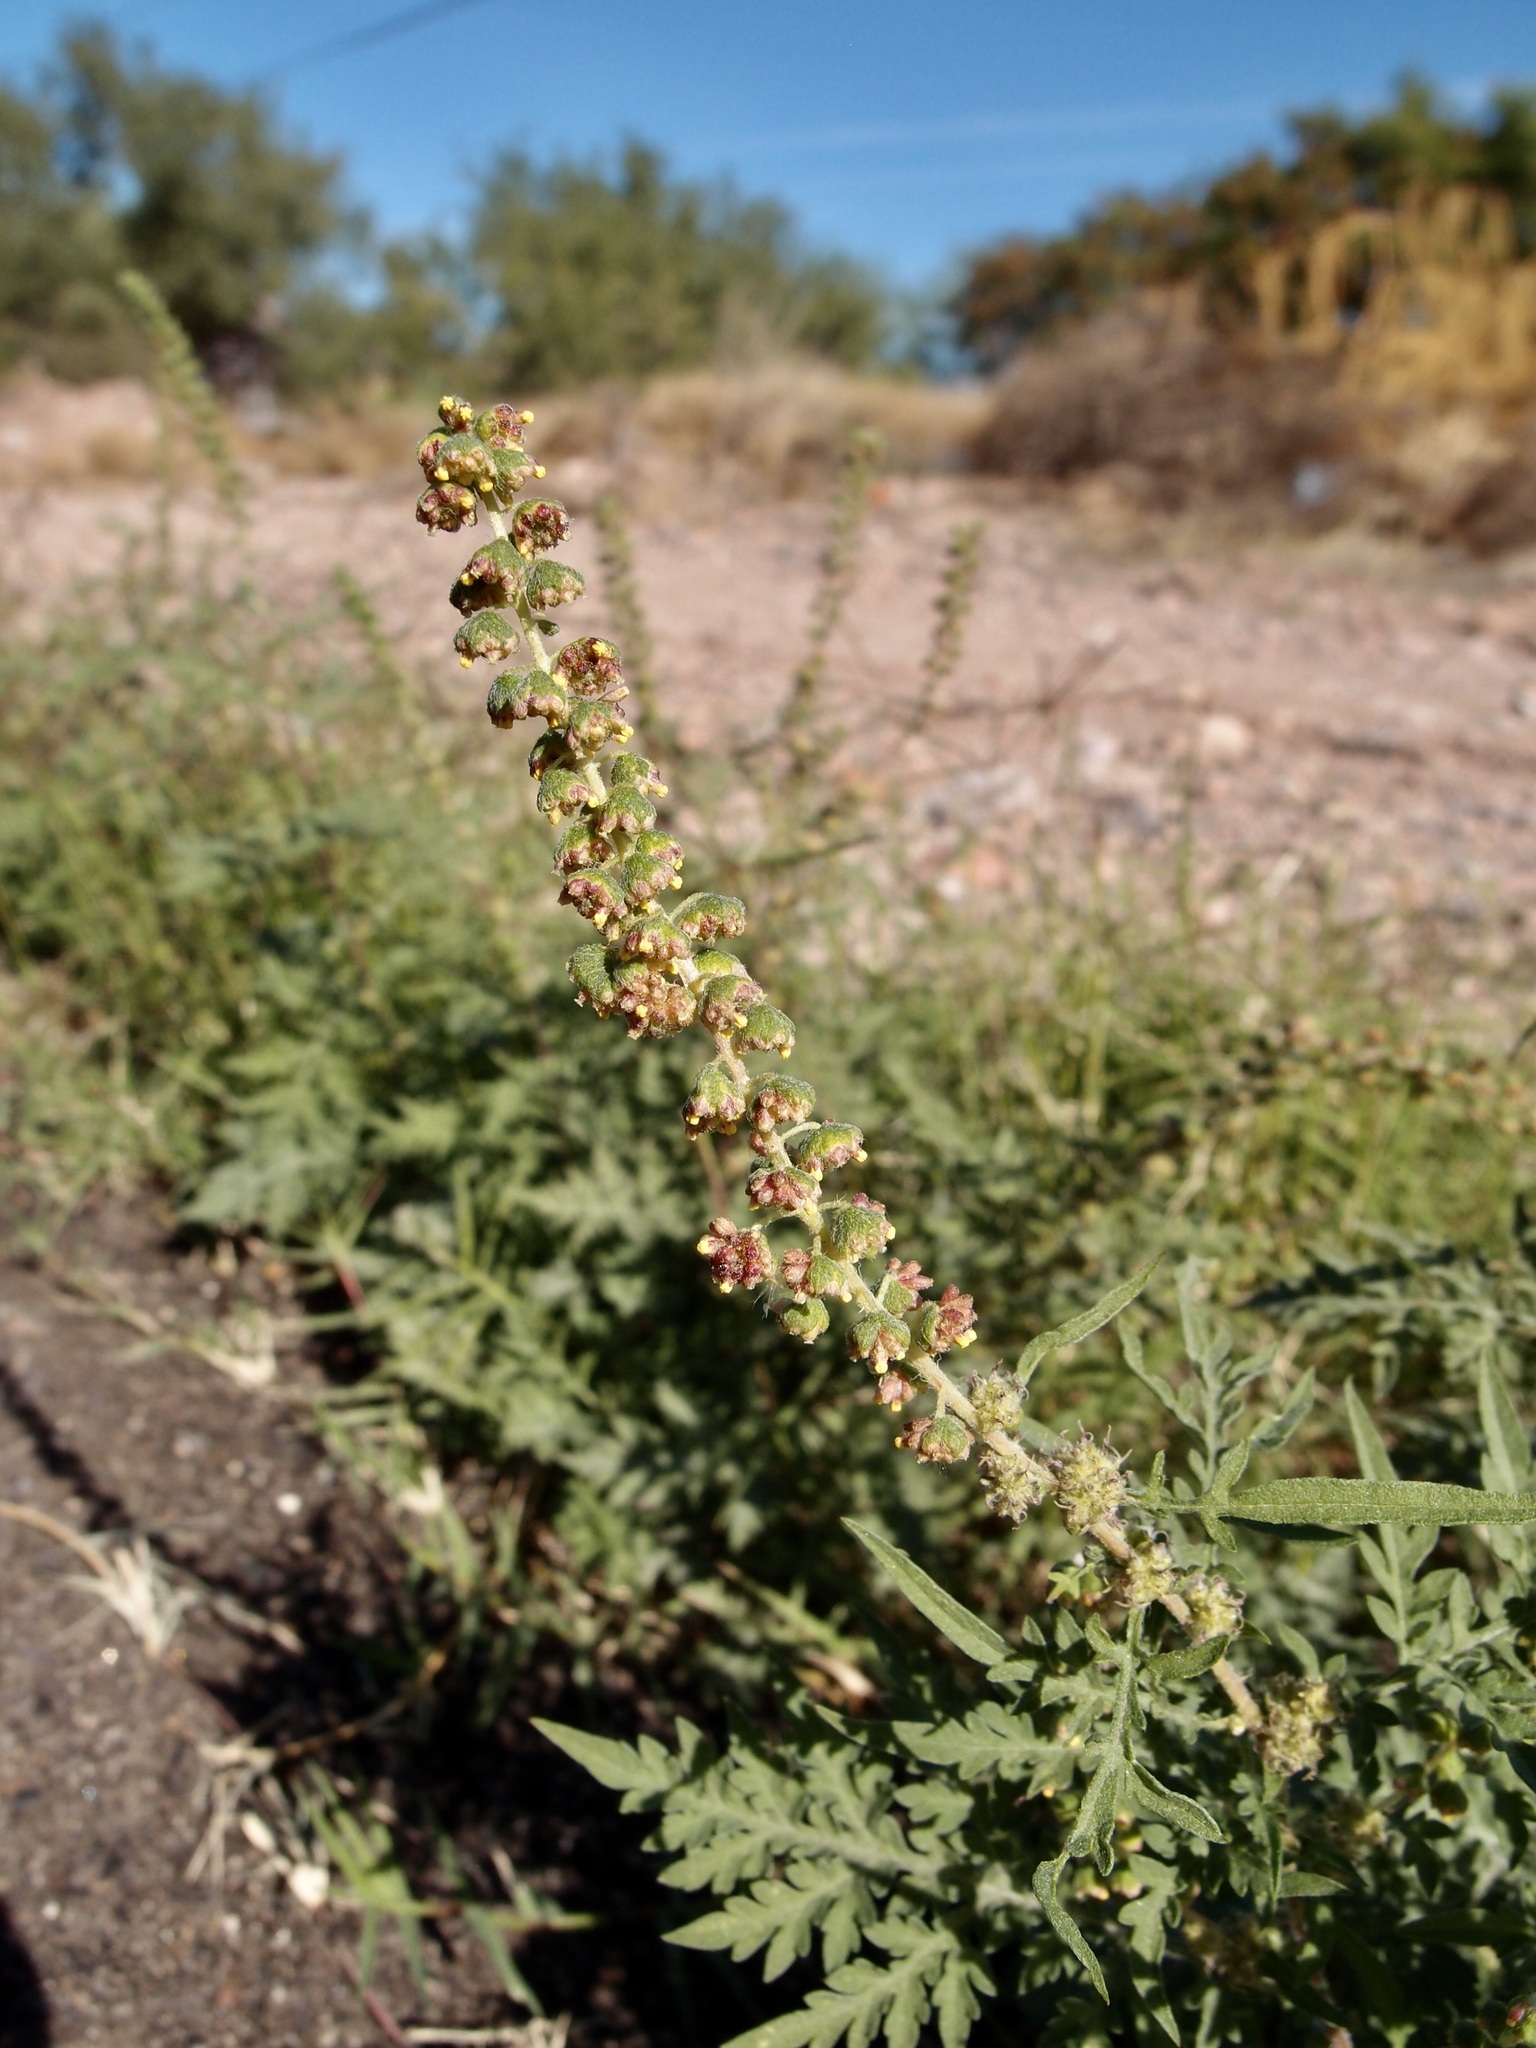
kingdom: Plantae
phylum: Tracheophyta
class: Magnoliopsida
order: Asterales
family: Asteraceae
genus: Ambrosia
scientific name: Ambrosia confertiflora
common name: Bur ragweed
